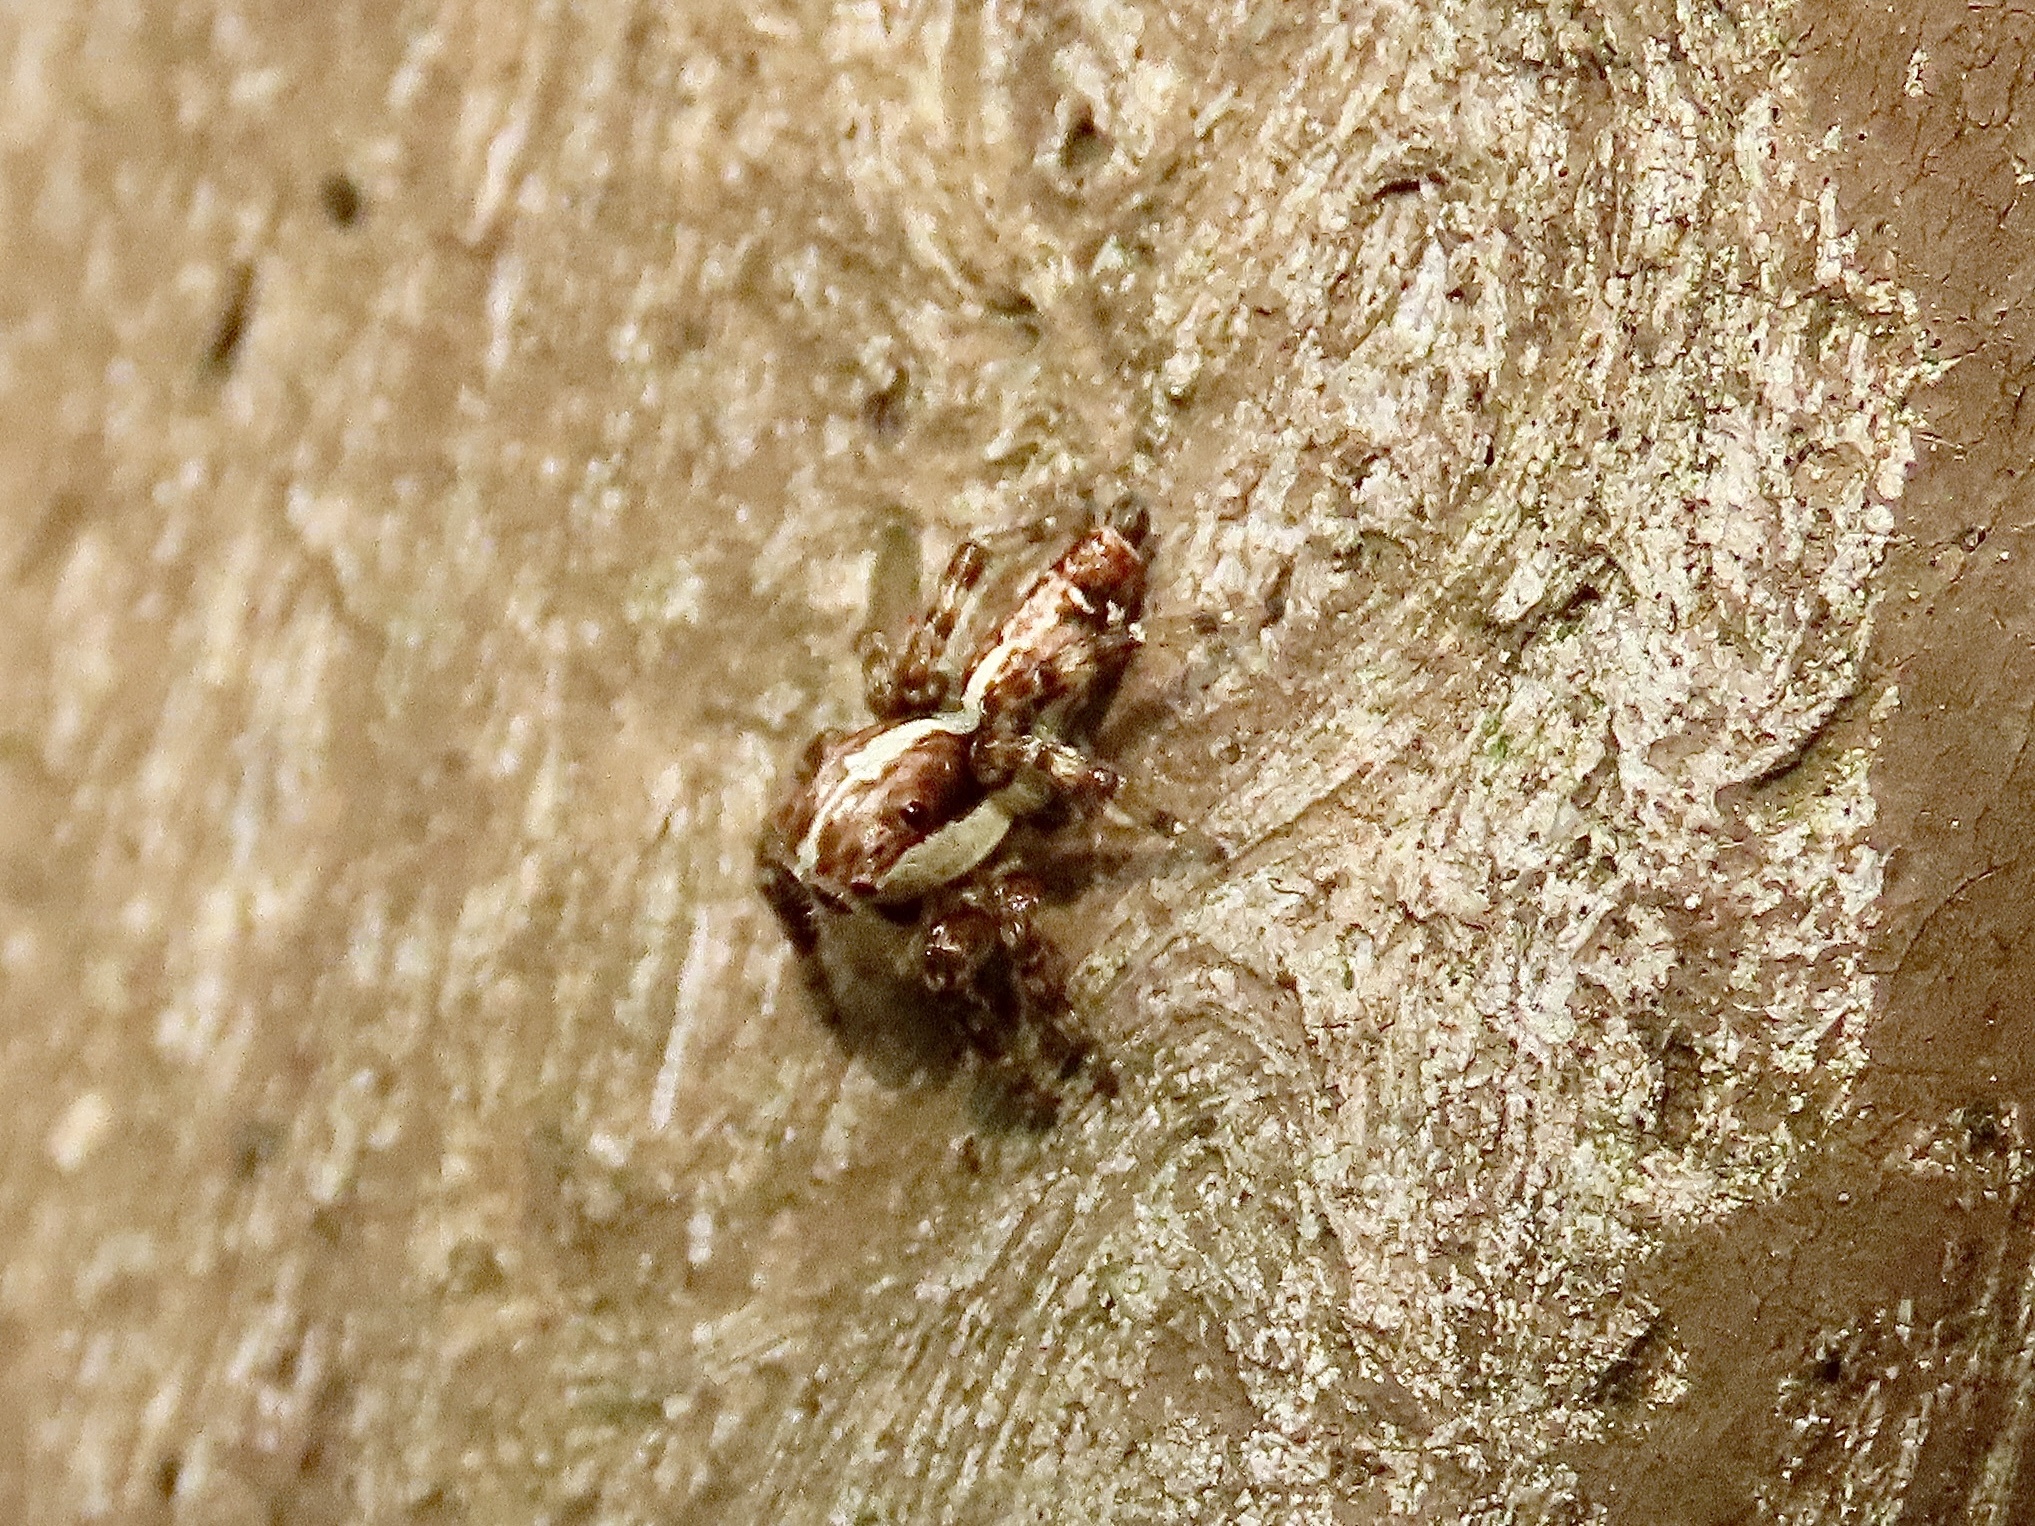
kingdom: Animalia
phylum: Arthropoda
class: Arachnida
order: Araneae
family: Salticidae
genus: Thyene
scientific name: Thyene orientalis
